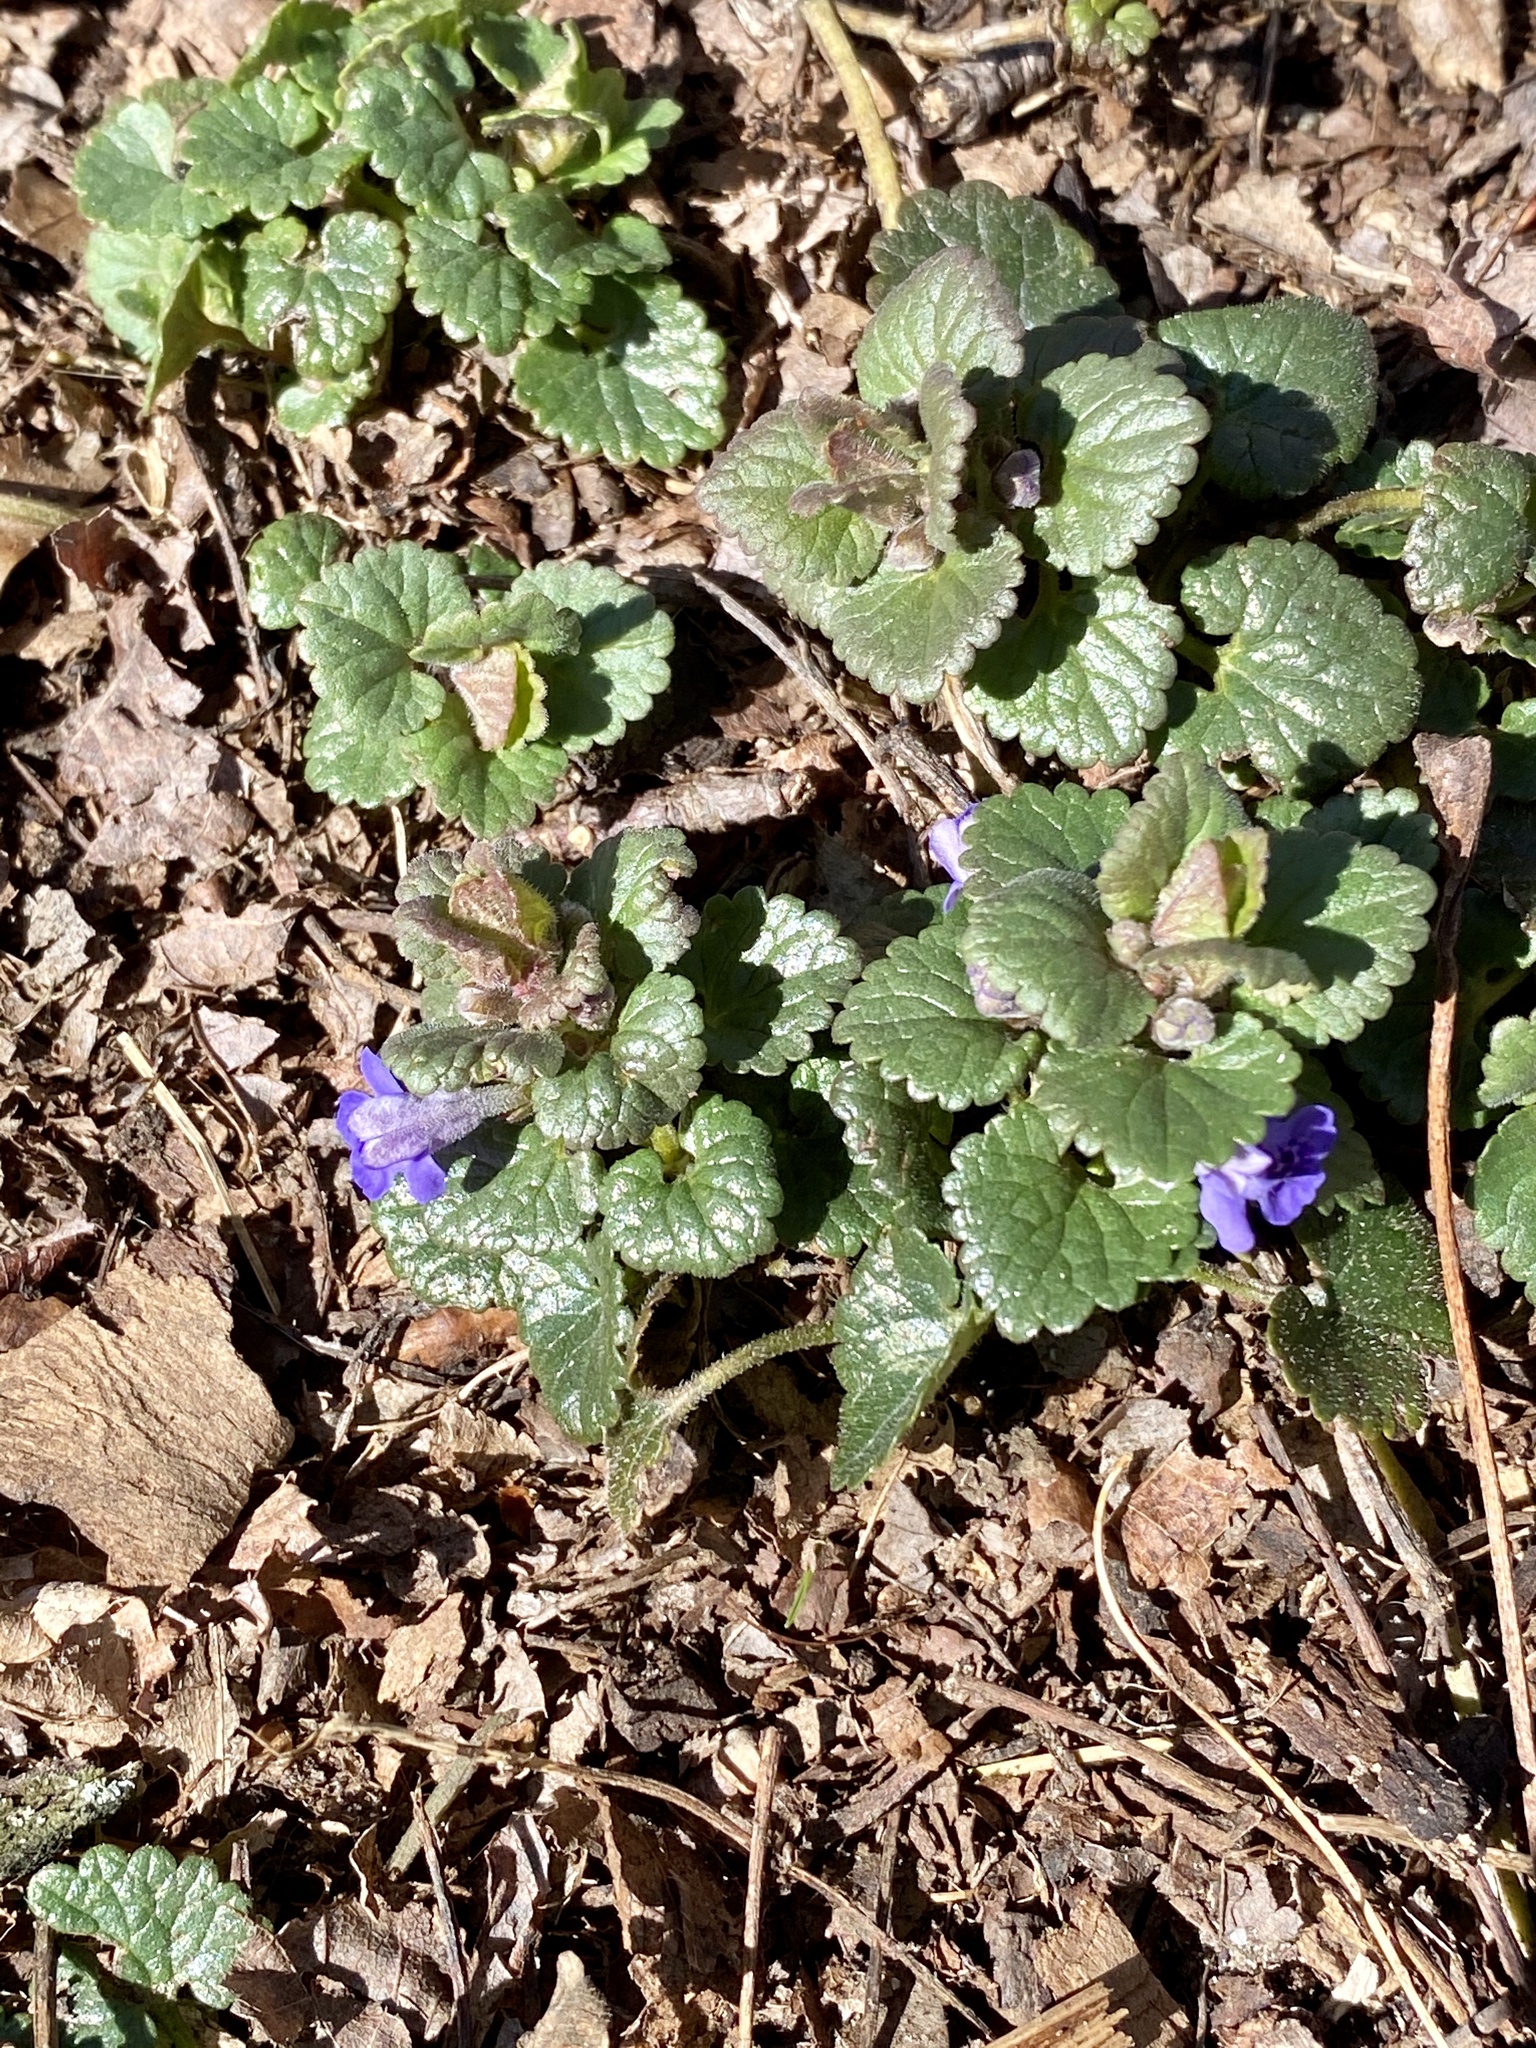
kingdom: Plantae
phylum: Tracheophyta
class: Magnoliopsida
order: Lamiales
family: Lamiaceae
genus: Glechoma
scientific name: Glechoma hederacea
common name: Ground ivy
